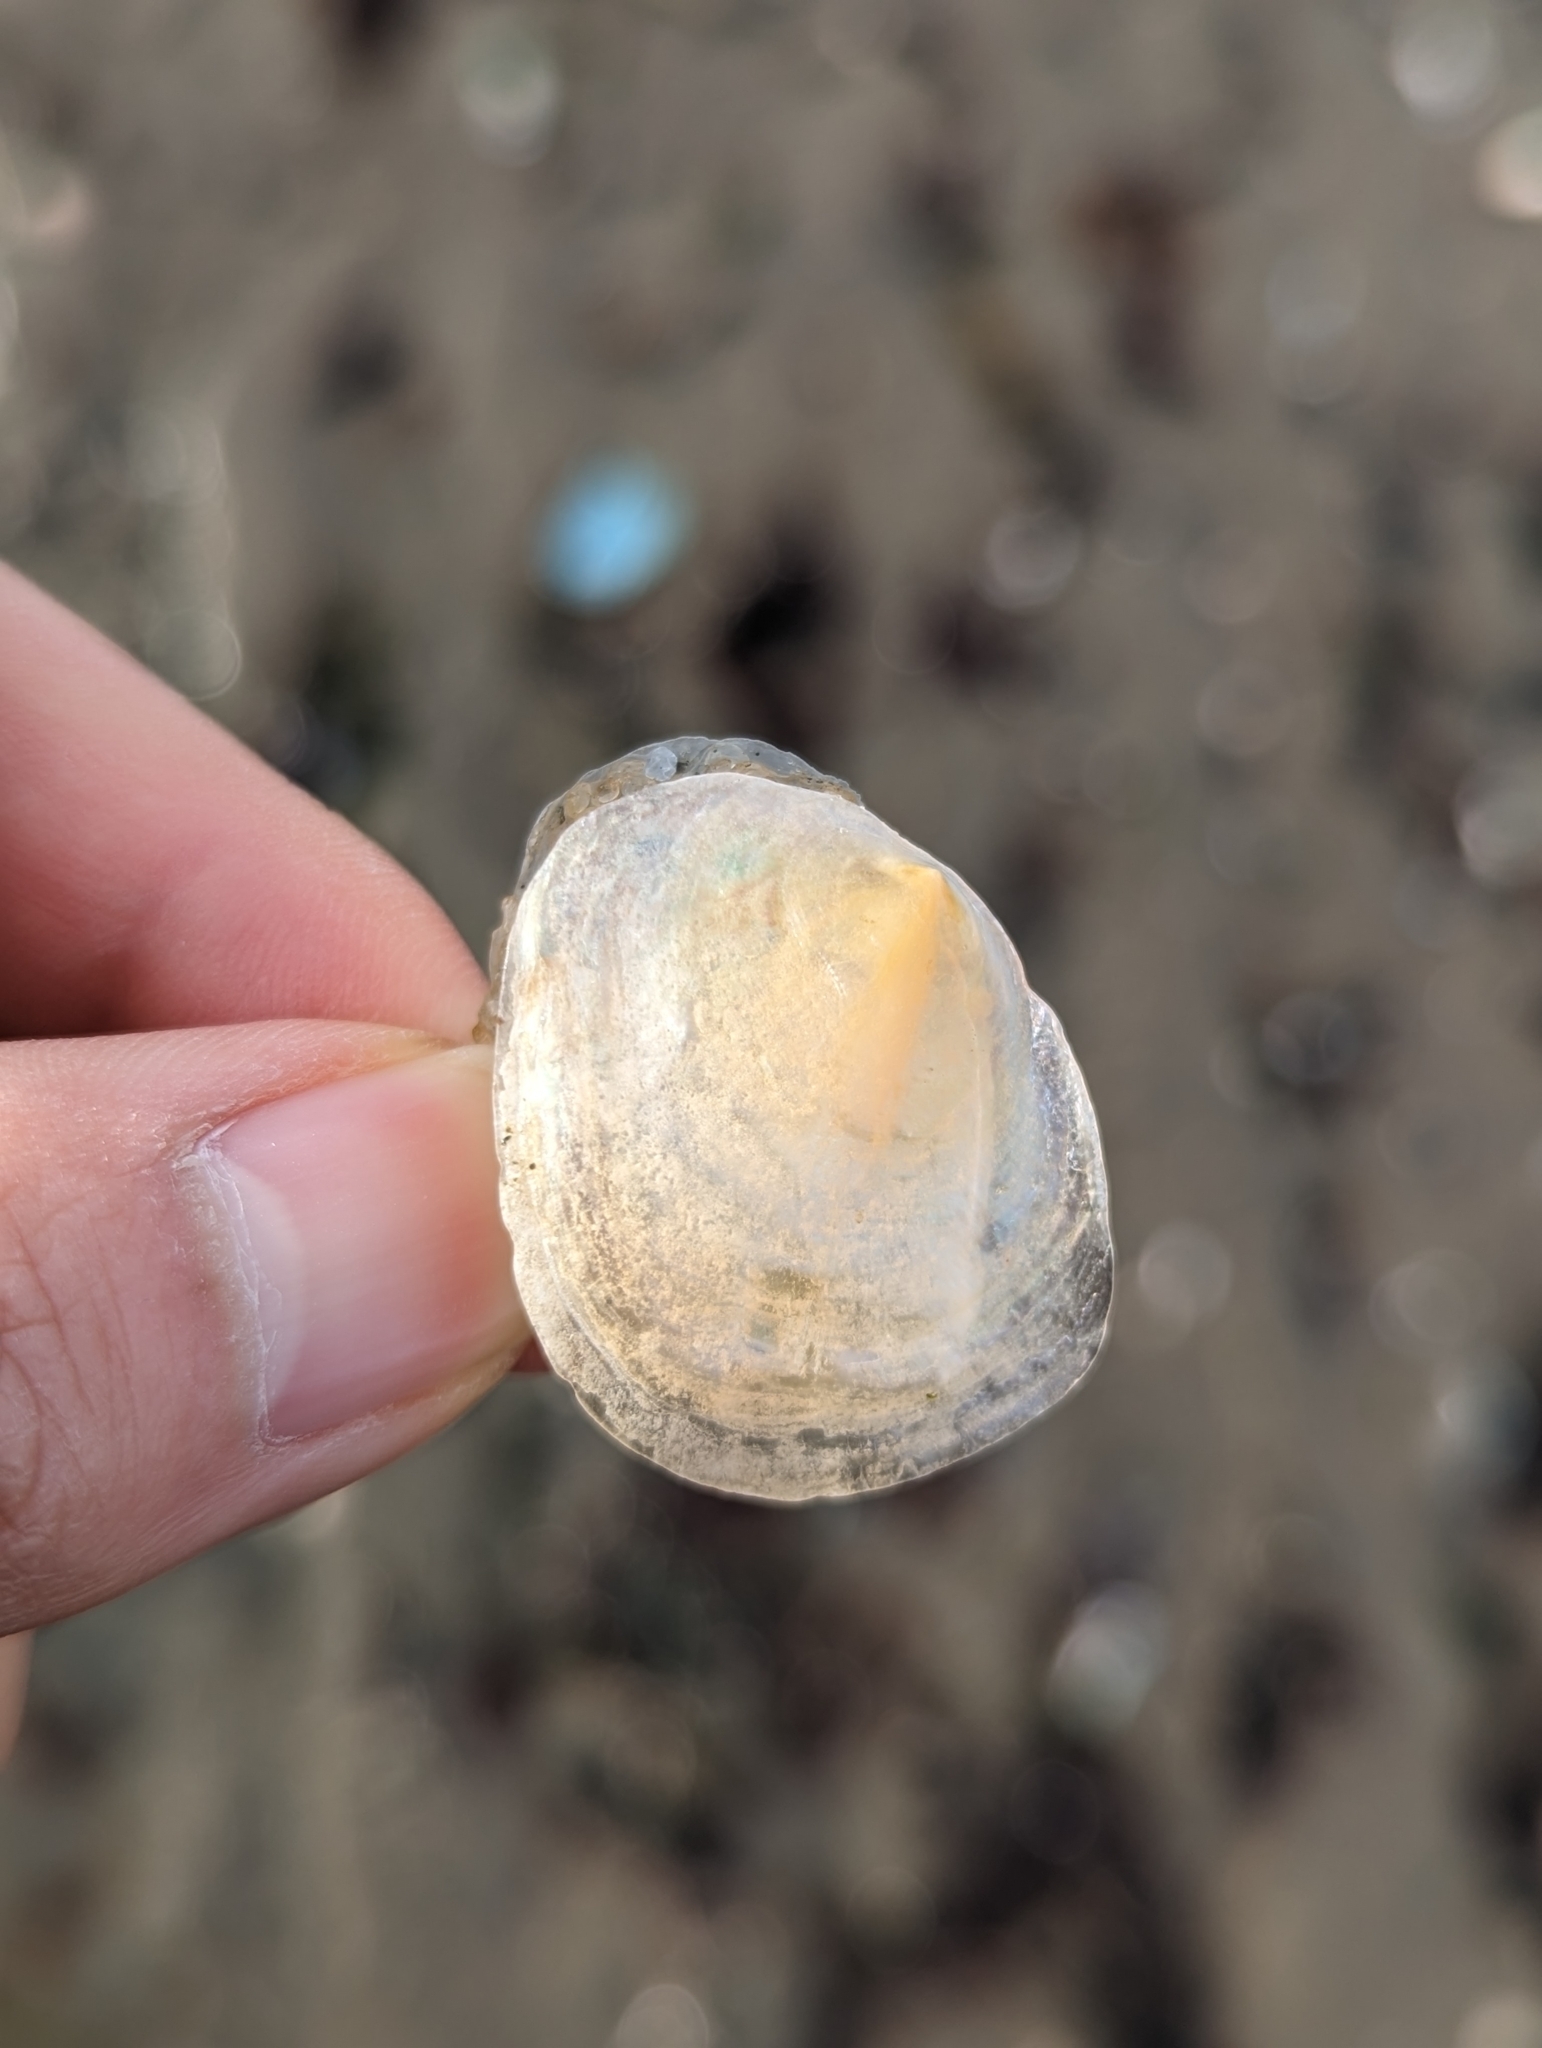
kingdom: Animalia
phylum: Mollusca
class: Bivalvia
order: Pectinida
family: Anomiidae
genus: Anomia
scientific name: Anomia simplex
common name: Common jingle shell
